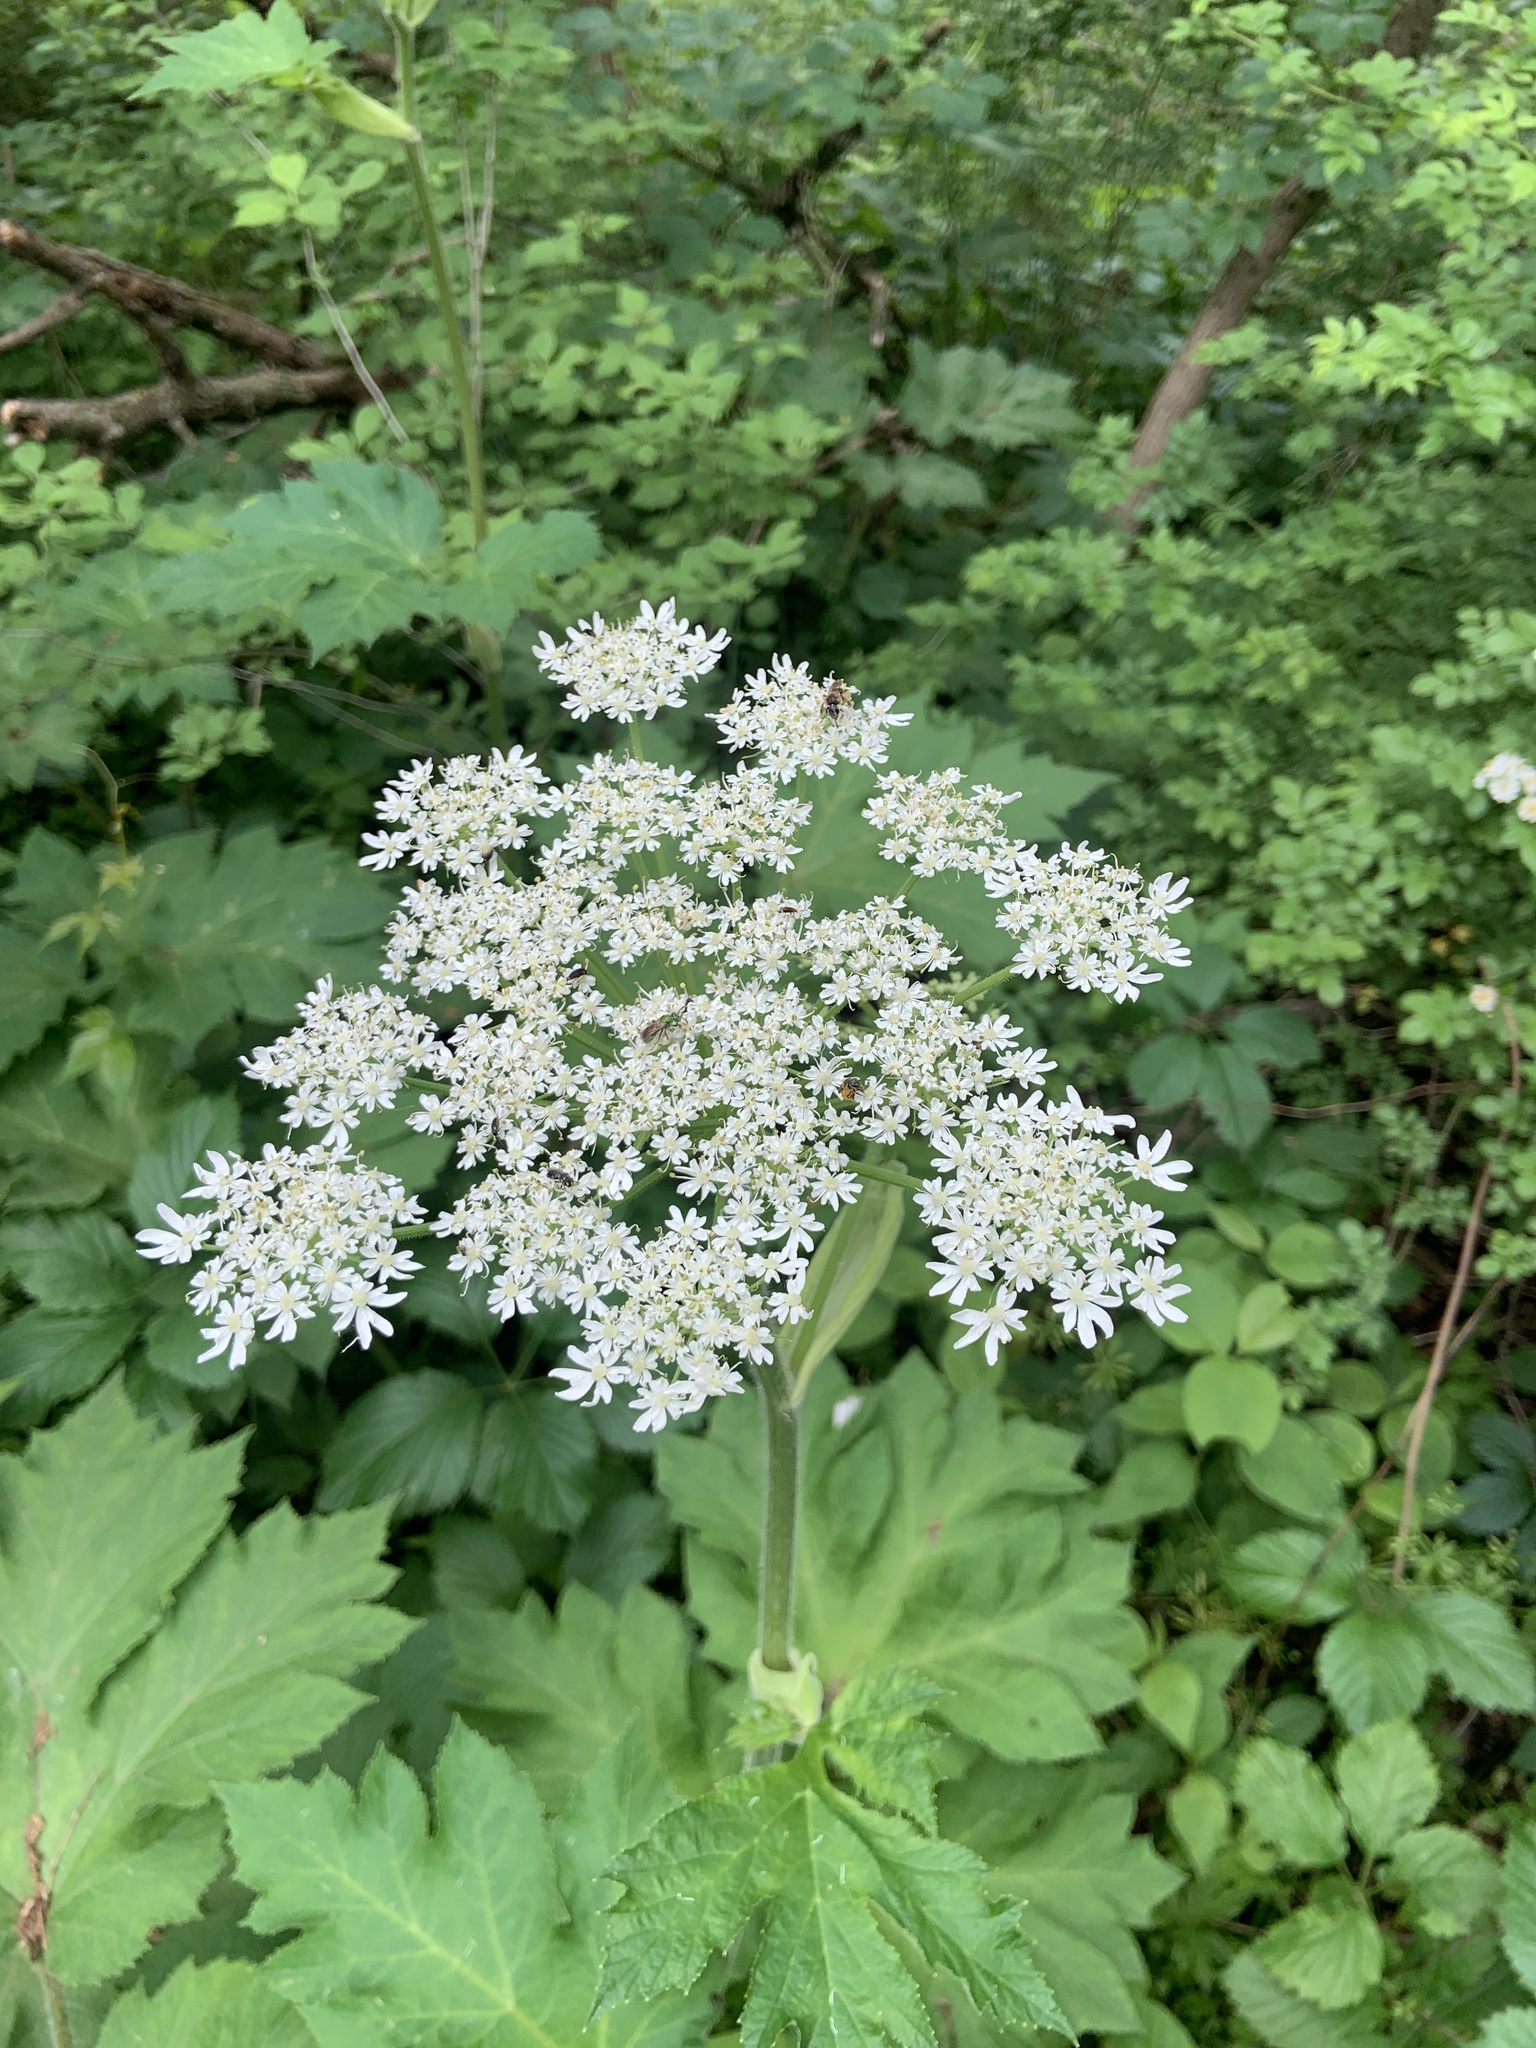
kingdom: Plantae
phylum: Tracheophyta
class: Magnoliopsida
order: Apiales
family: Apiaceae
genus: Heracleum
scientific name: Heracleum maximum
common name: American cow parsnip
